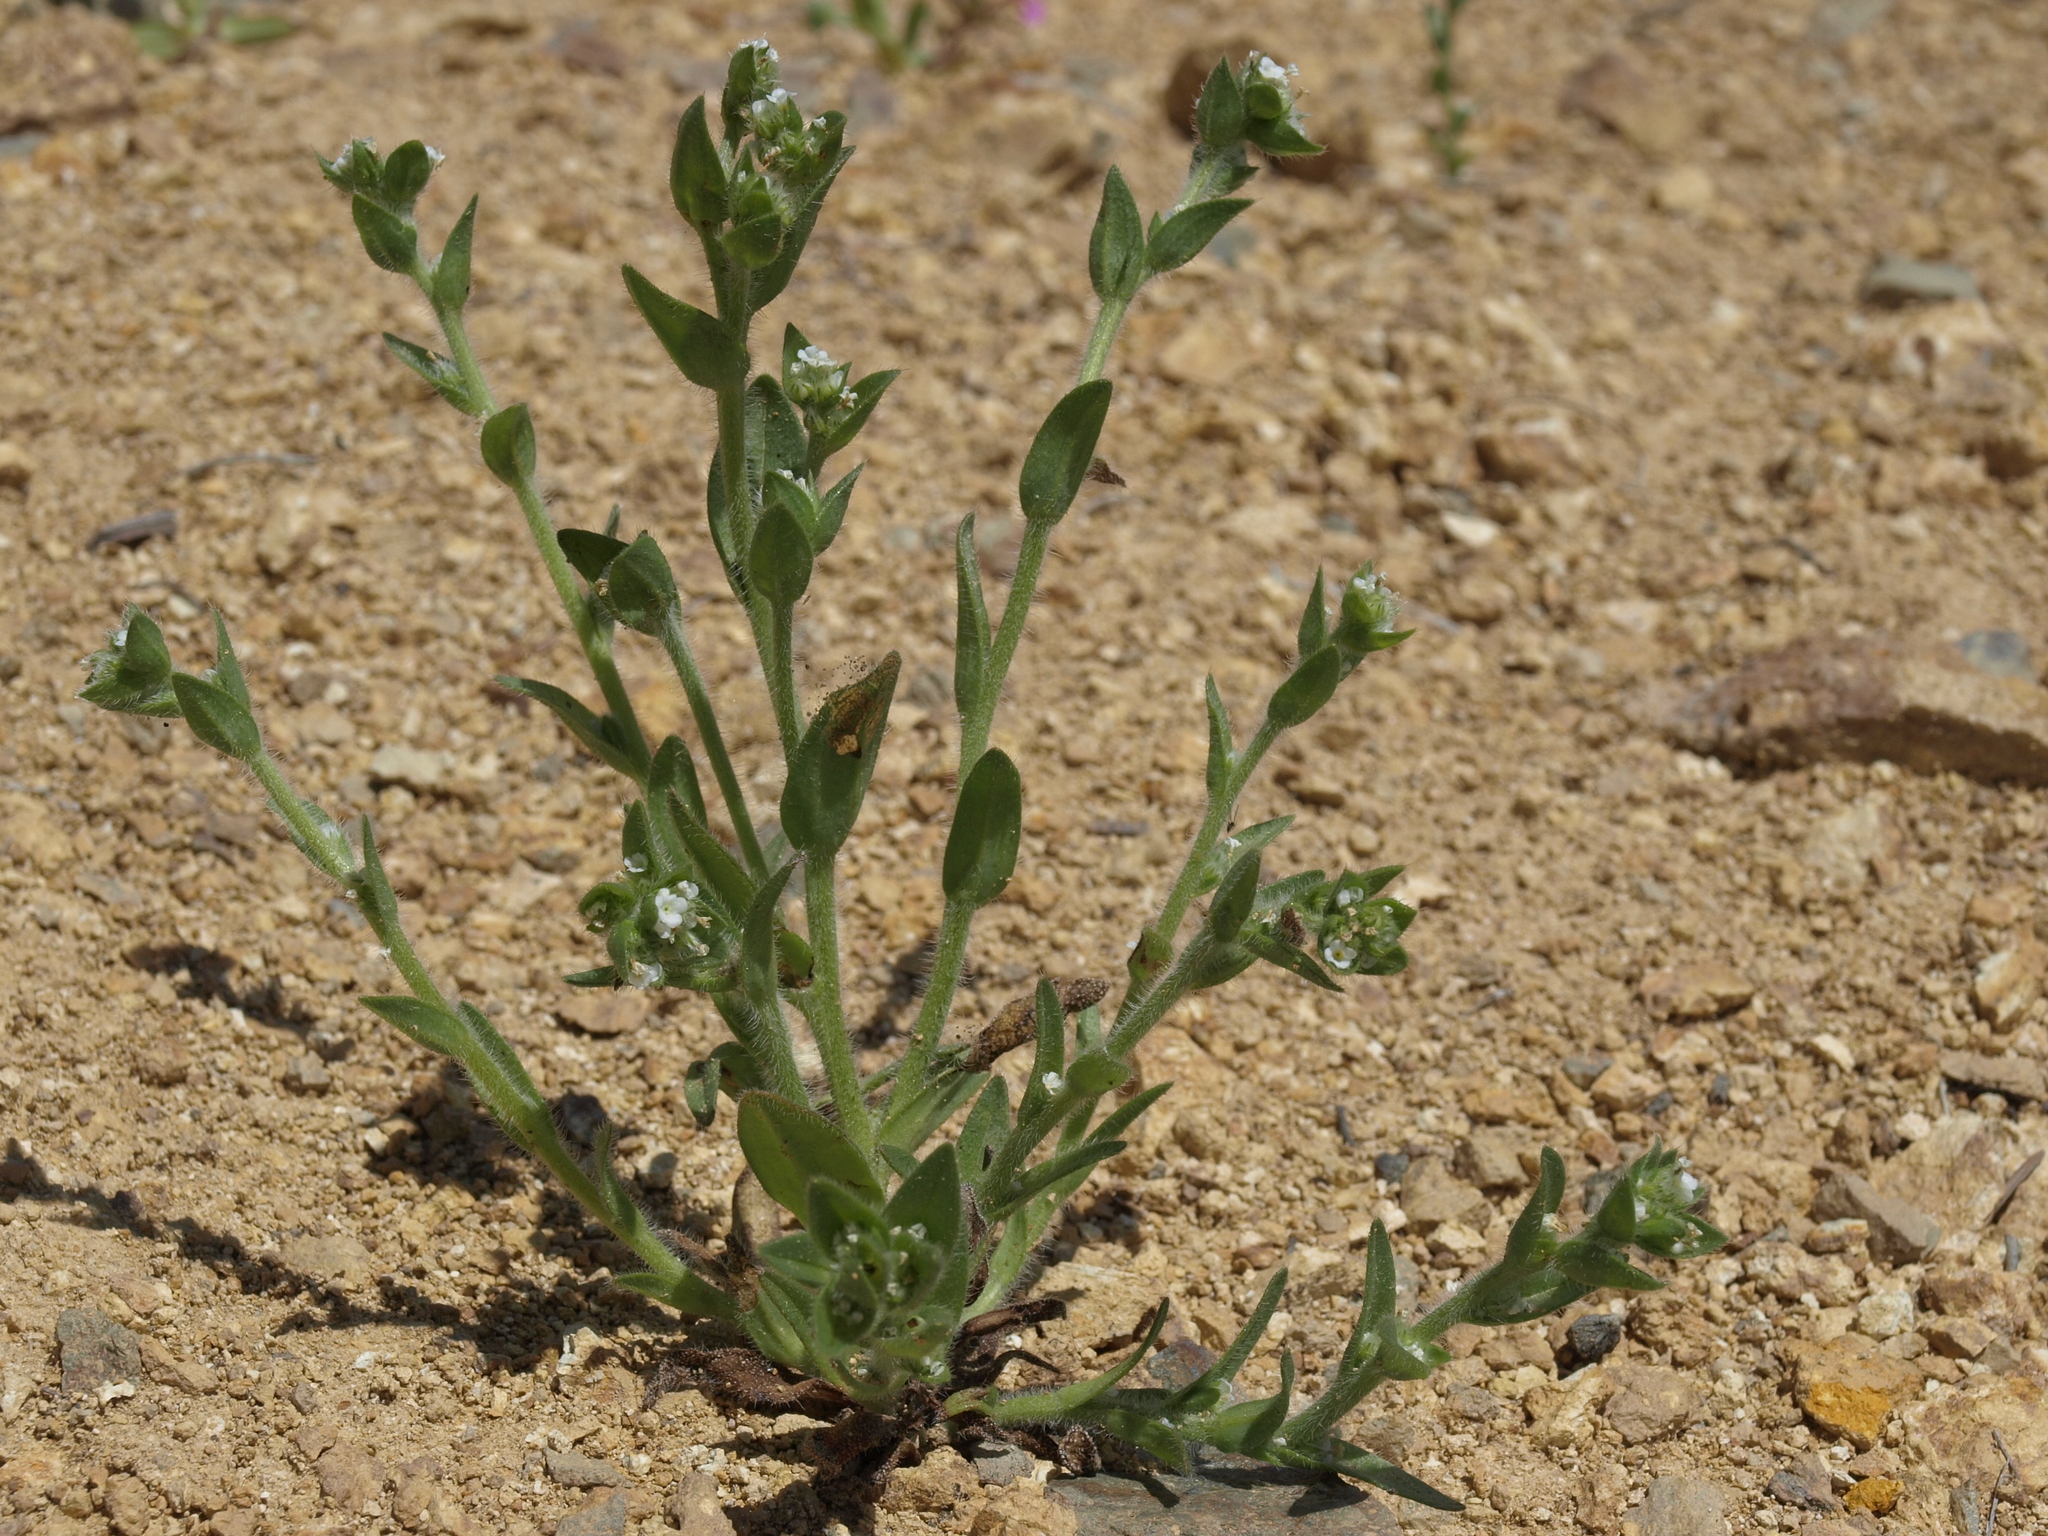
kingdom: Plantae
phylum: Tracheophyta
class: Magnoliopsida
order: Boraginales
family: Boraginaceae
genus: Plagiobothrys
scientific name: Plagiobothrys glomeratus
